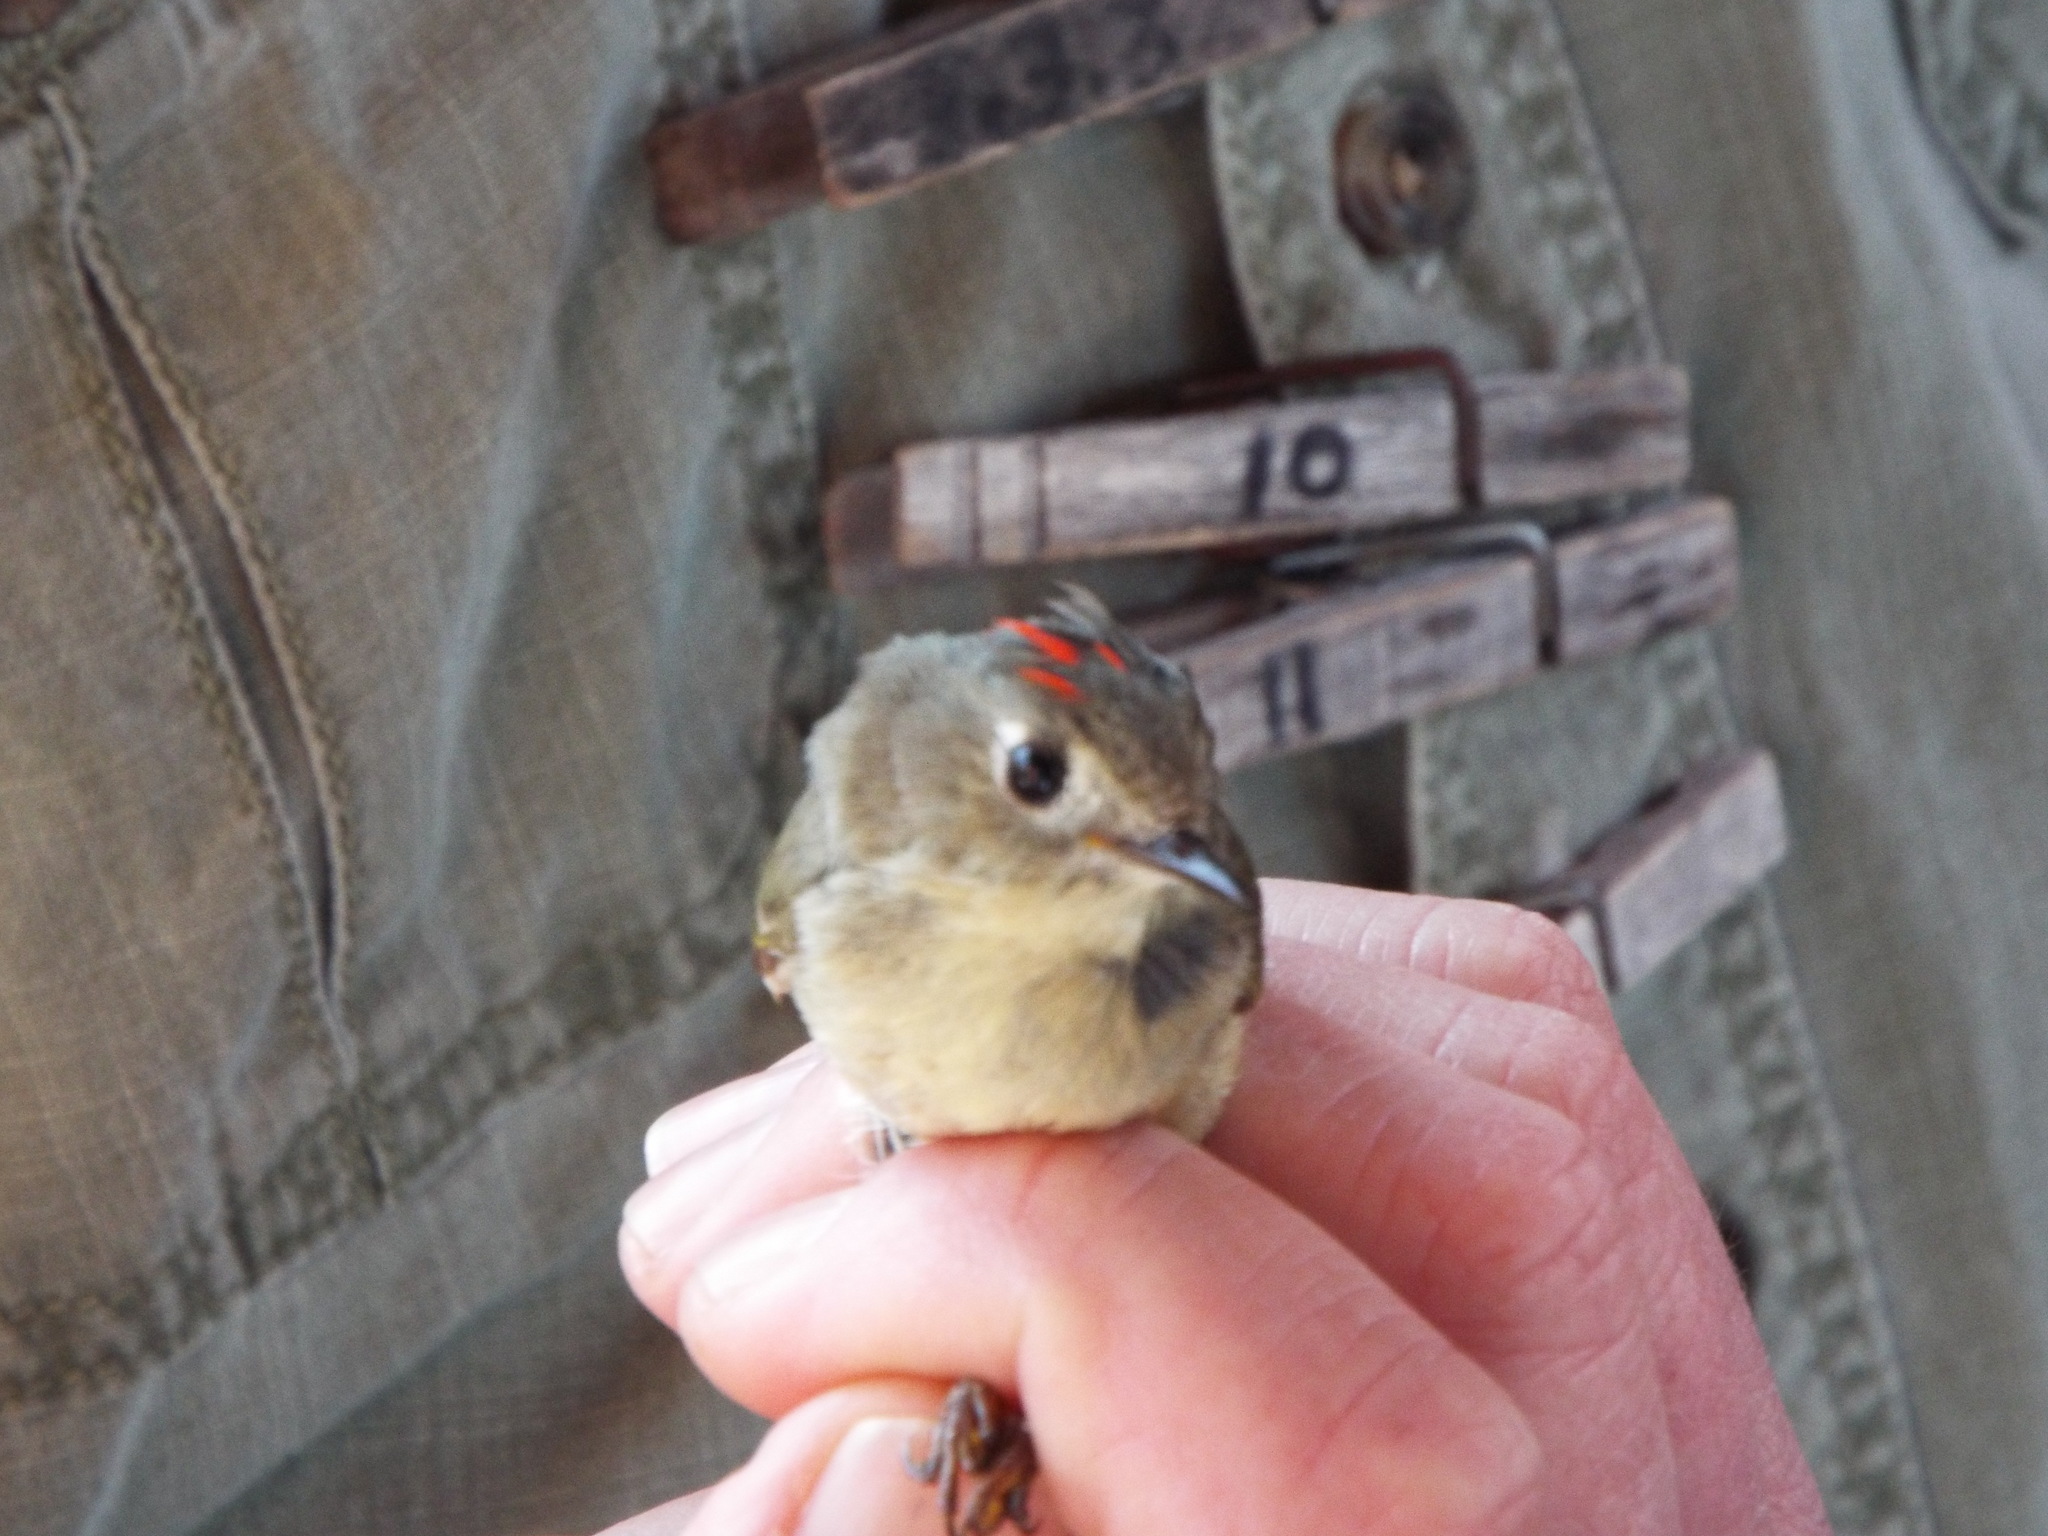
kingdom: Animalia
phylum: Chordata
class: Aves
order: Passeriformes
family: Regulidae
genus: Regulus
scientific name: Regulus calendula
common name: Ruby-crowned kinglet
